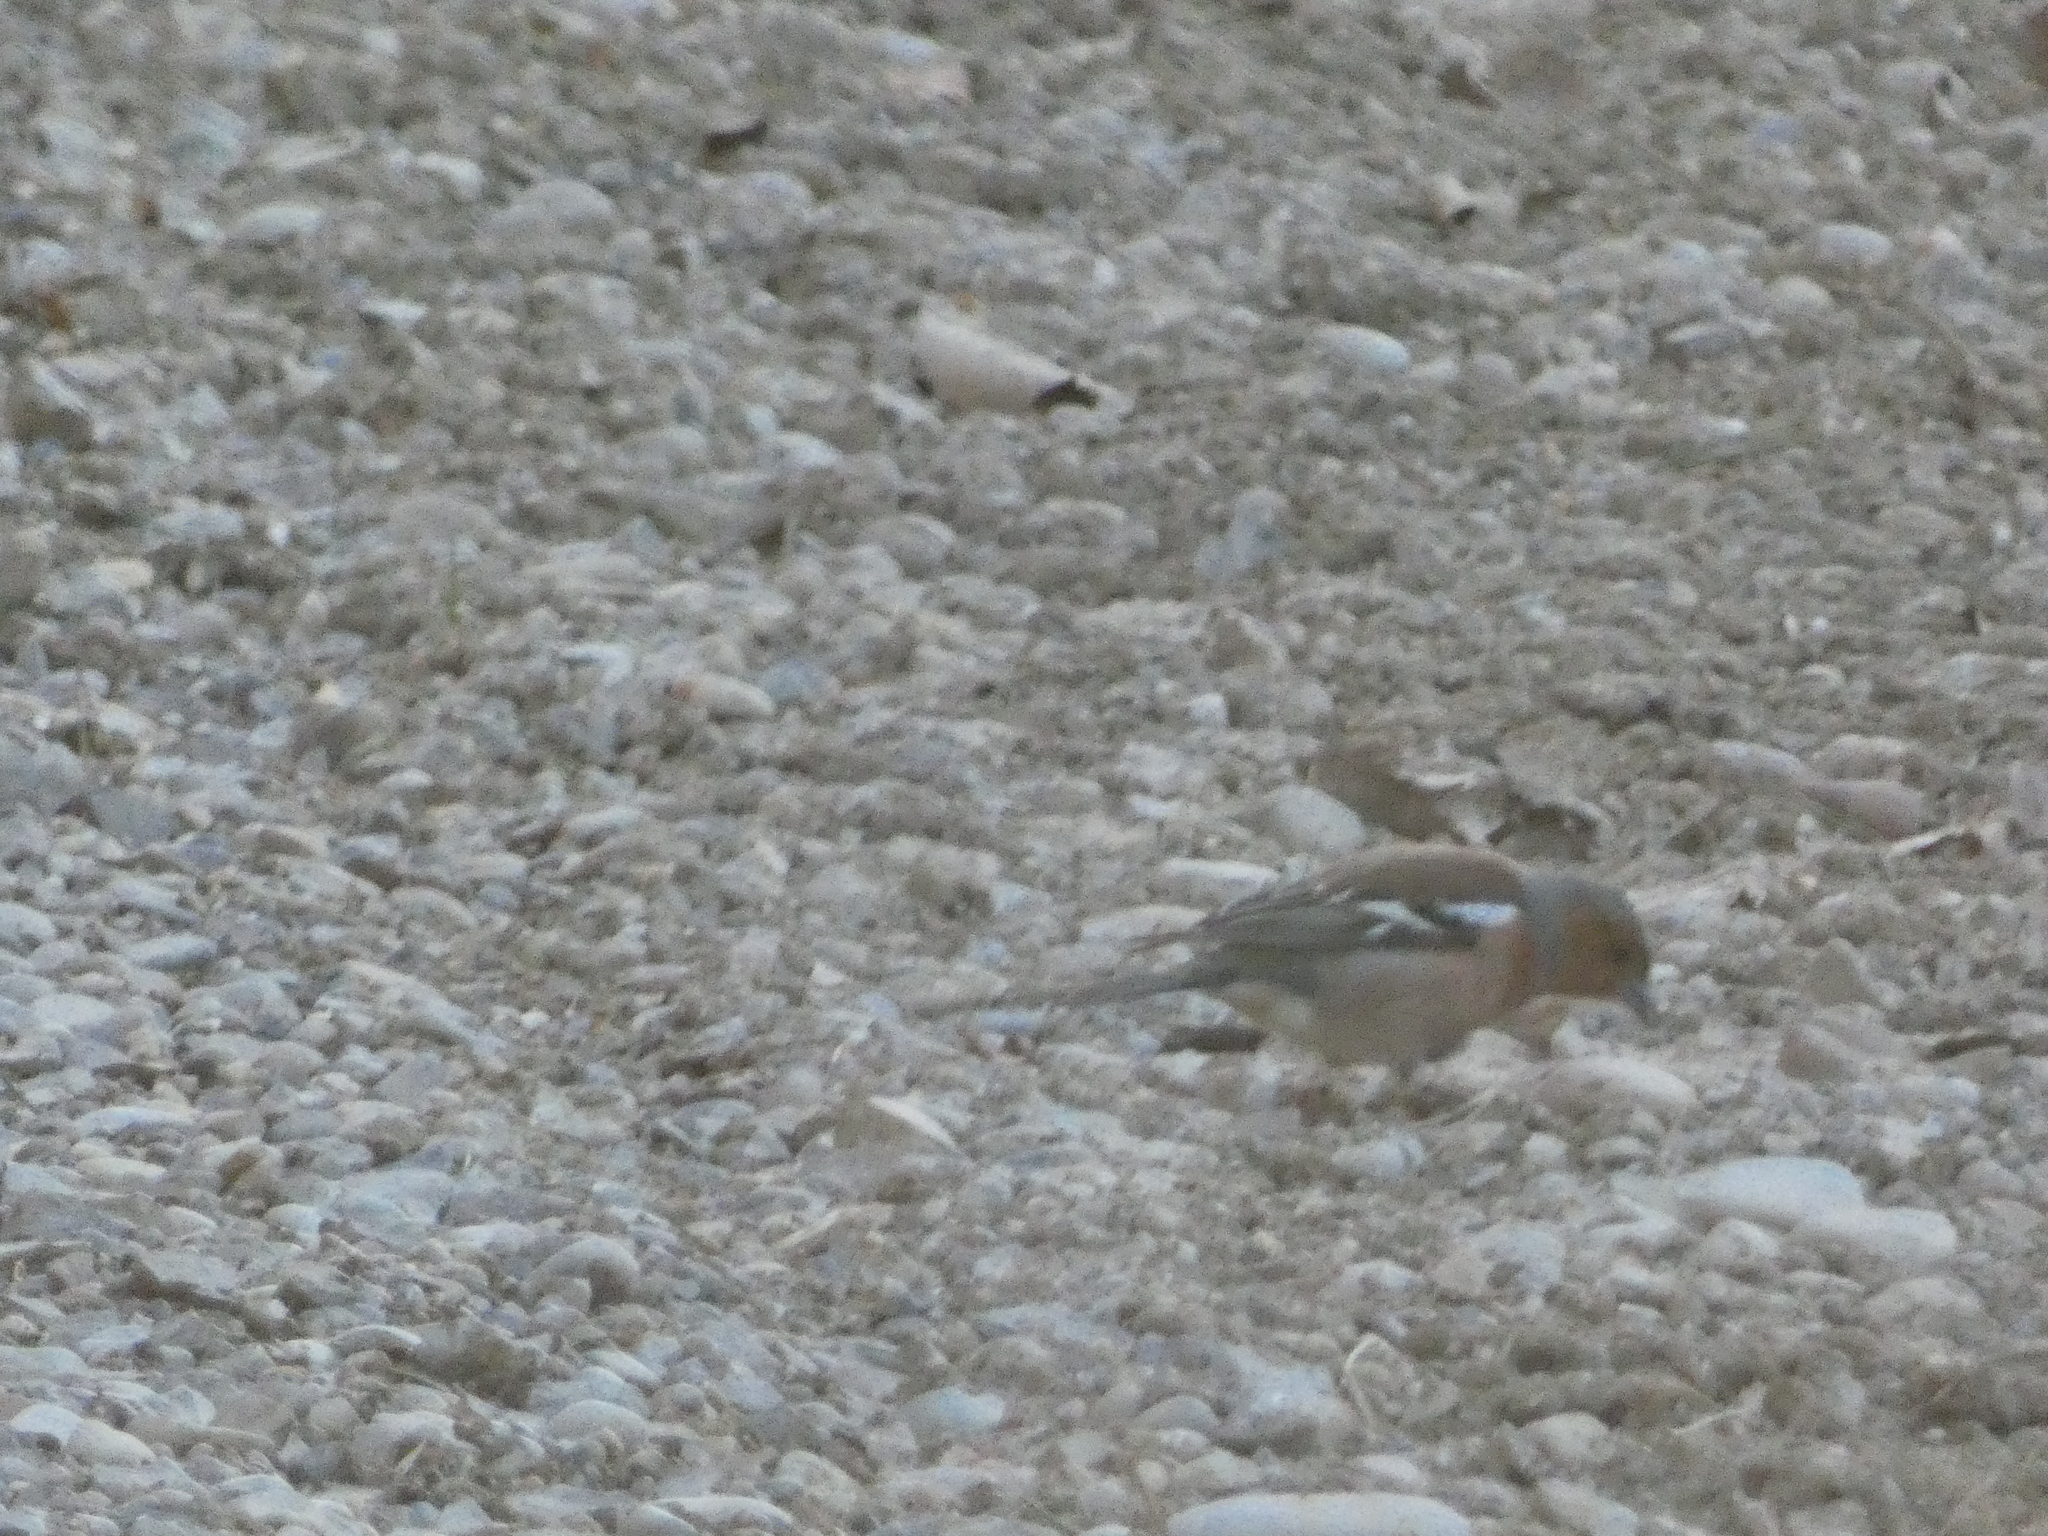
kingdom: Animalia
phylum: Chordata
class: Aves
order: Passeriformes
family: Fringillidae
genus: Fringilla
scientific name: Fringilla coelebs
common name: Common chaffinch
